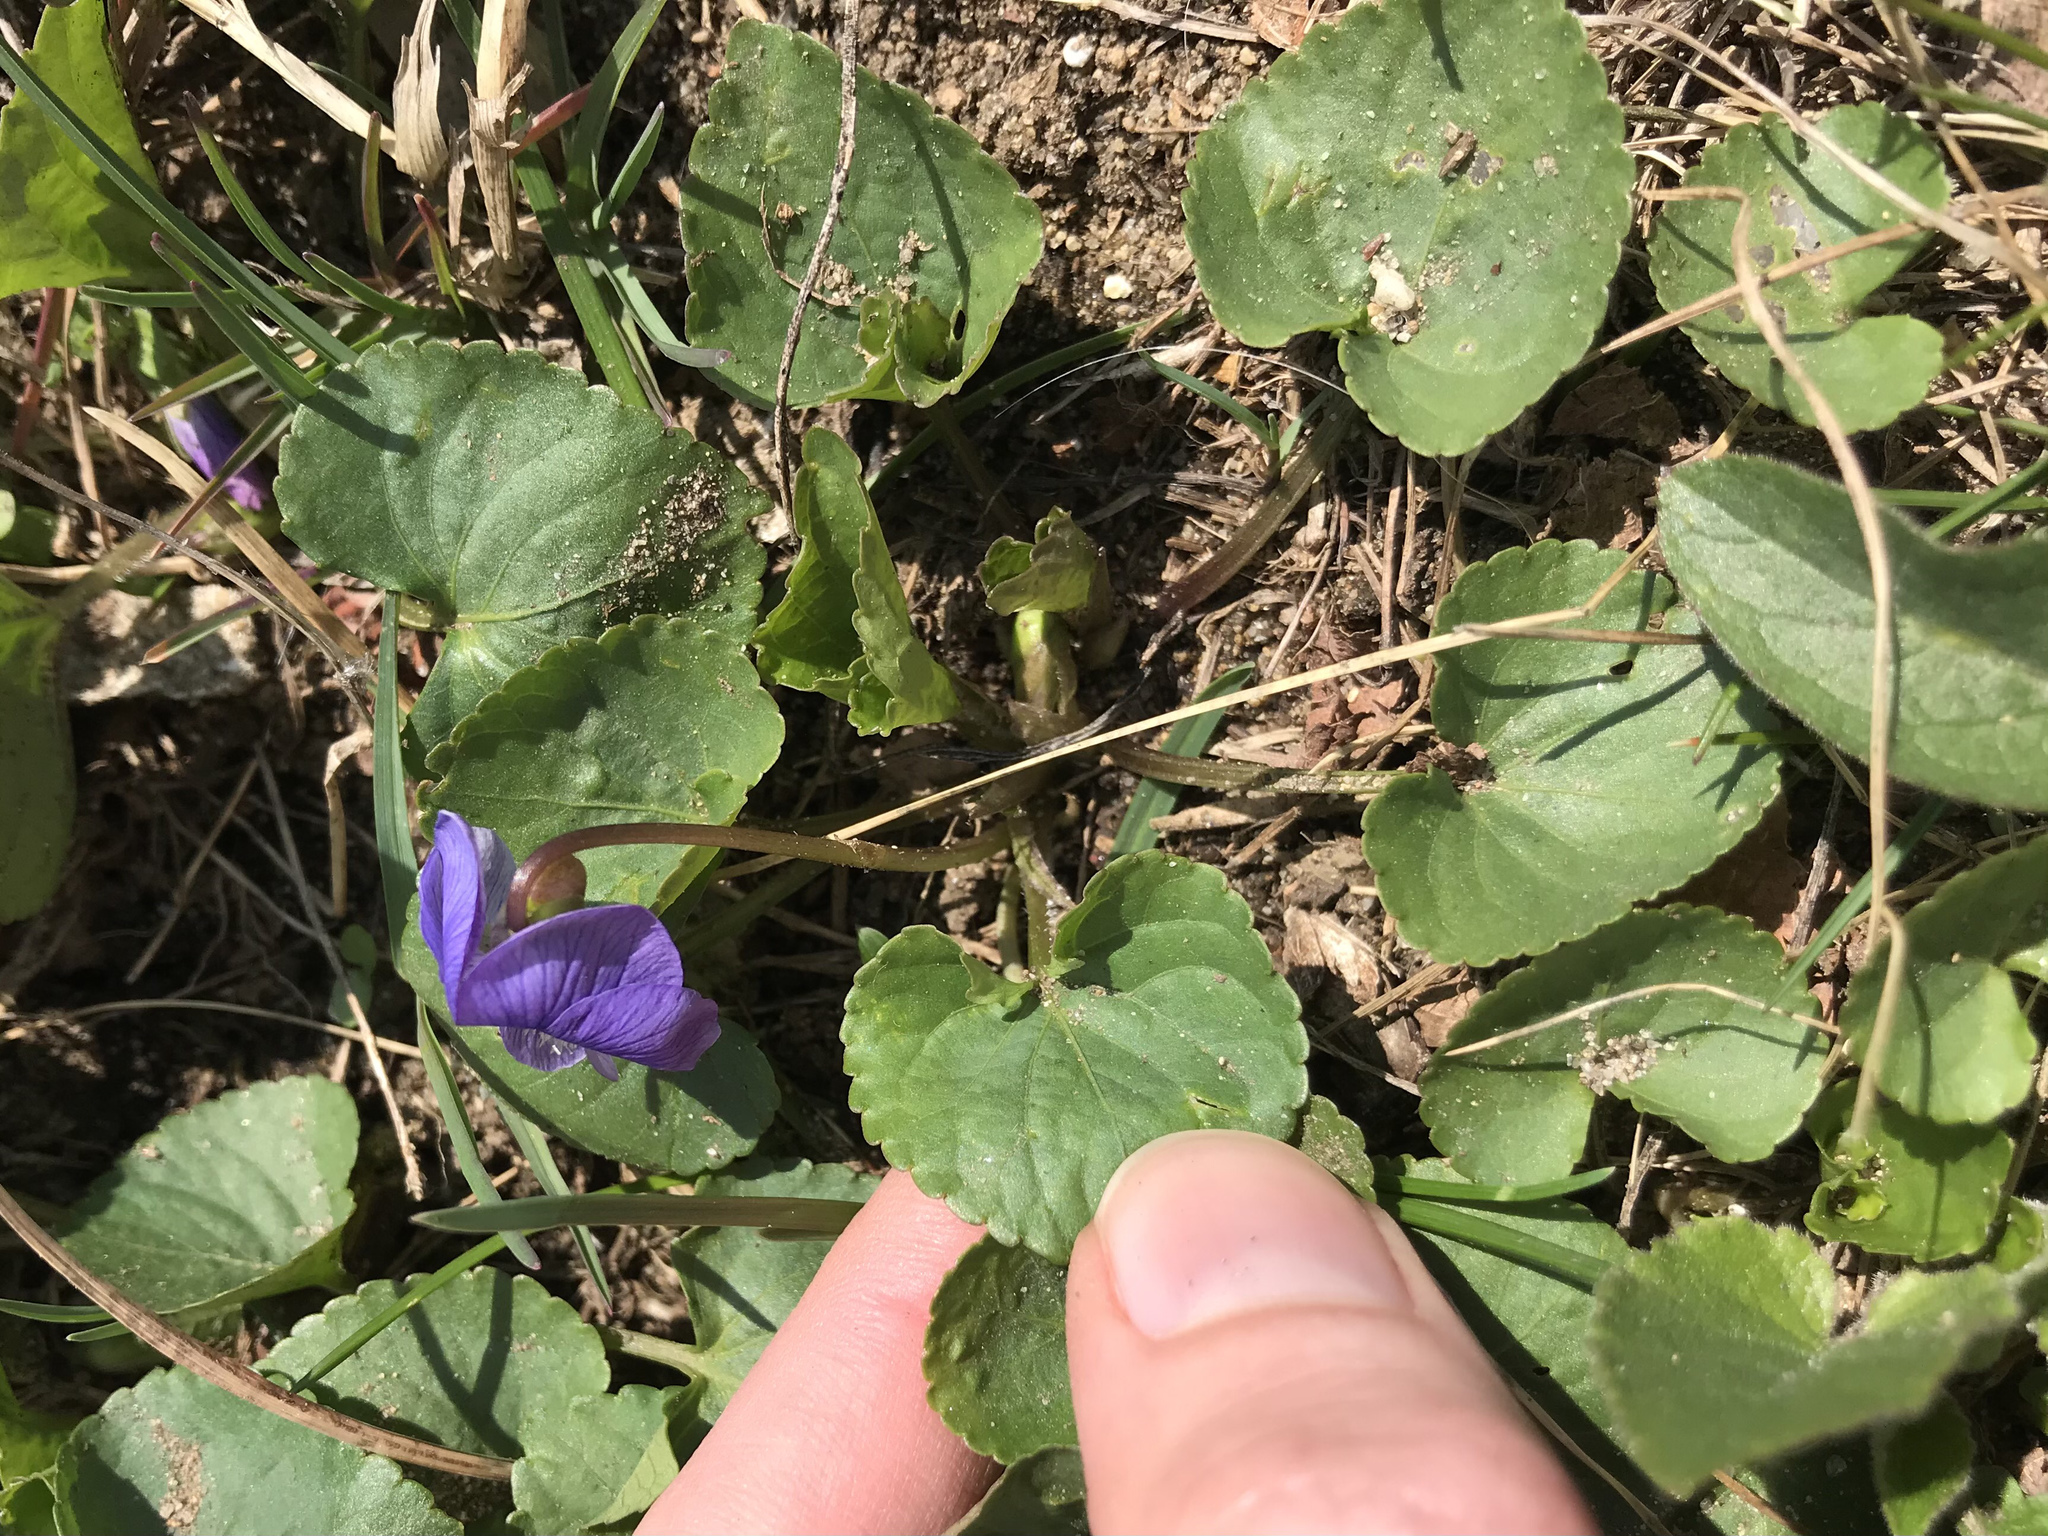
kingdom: Plantae
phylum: Tracheophyta
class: Magnoliopsida
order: Malpighiales
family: Violaceae
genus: Viola
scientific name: Viola sororia
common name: Dooryard violet
